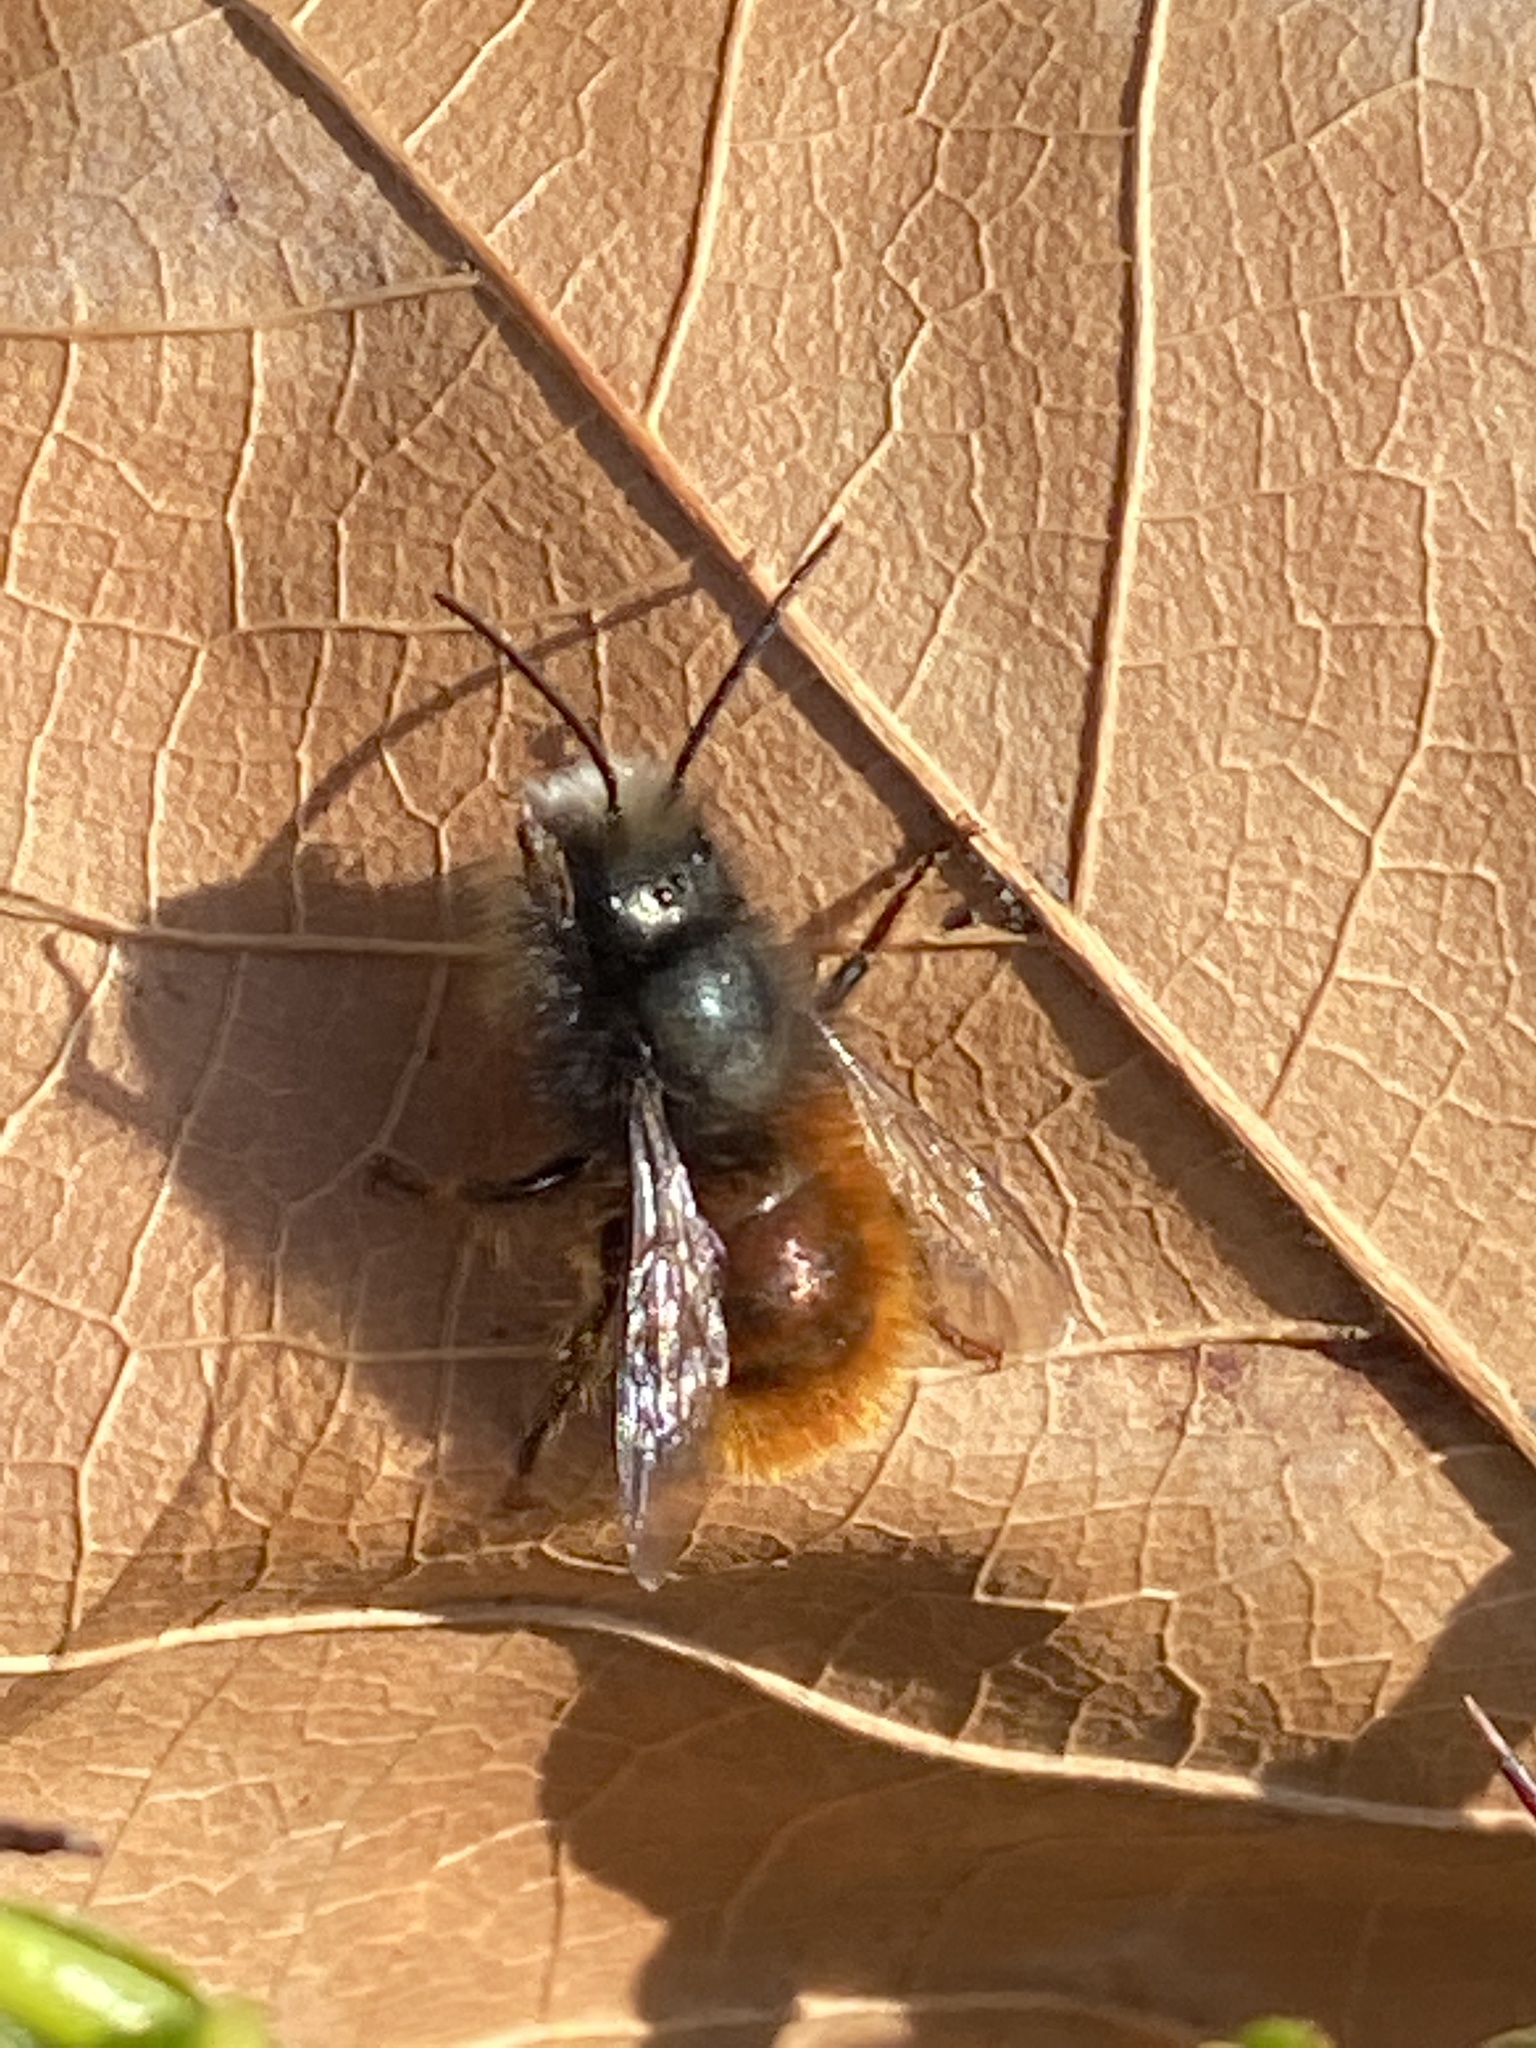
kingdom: Animalia
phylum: Arthropoda
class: Insecta
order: Hymenoptera
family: Megachilidae
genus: Osmia
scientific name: Osmia cornuta
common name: Mason bee
